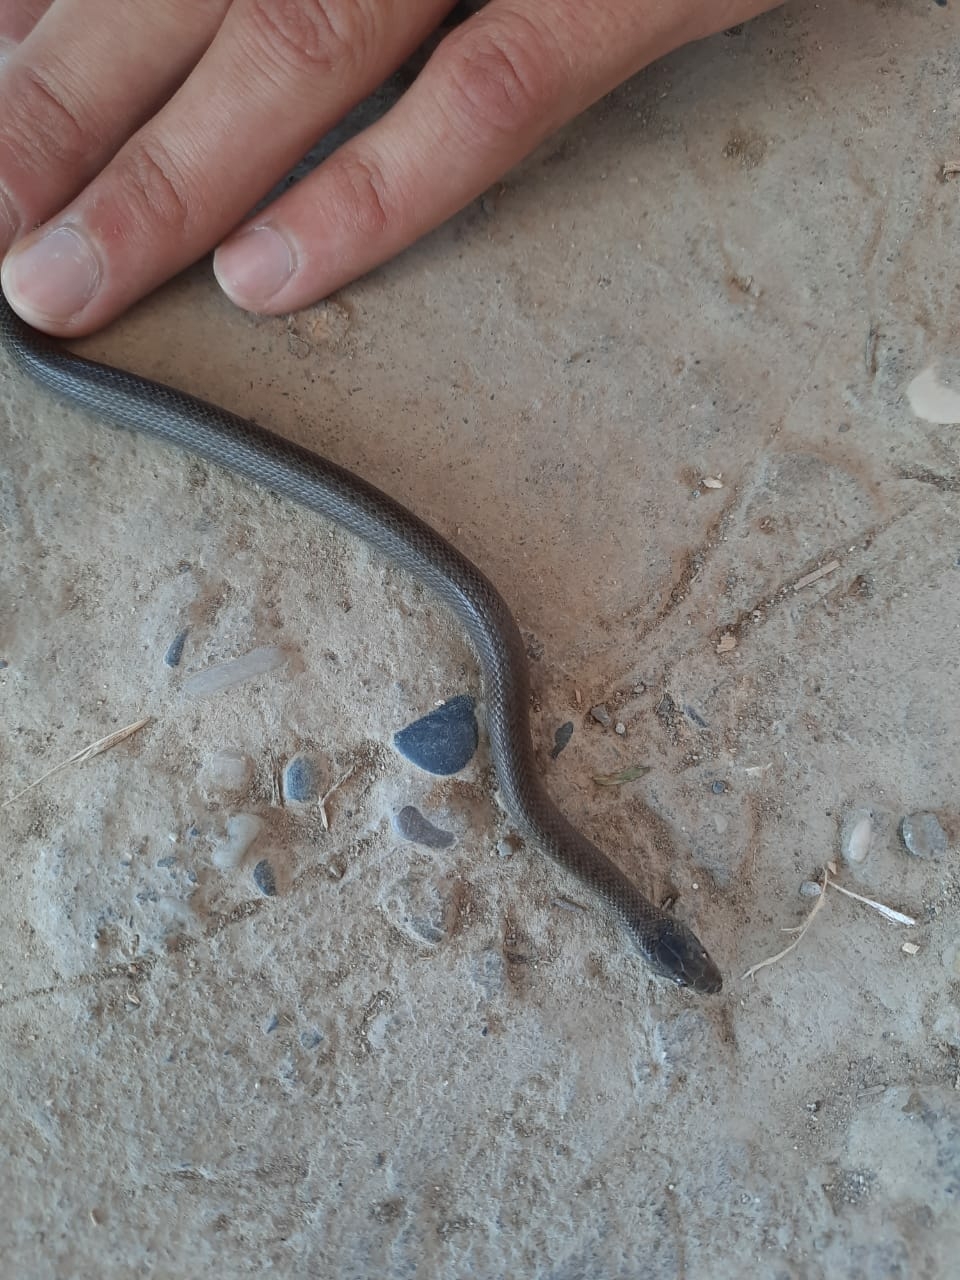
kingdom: Animalia
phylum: Chordata
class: Squamata
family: Colubridae
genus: Coronella
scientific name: Coronella austriaca
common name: Smooth snake
